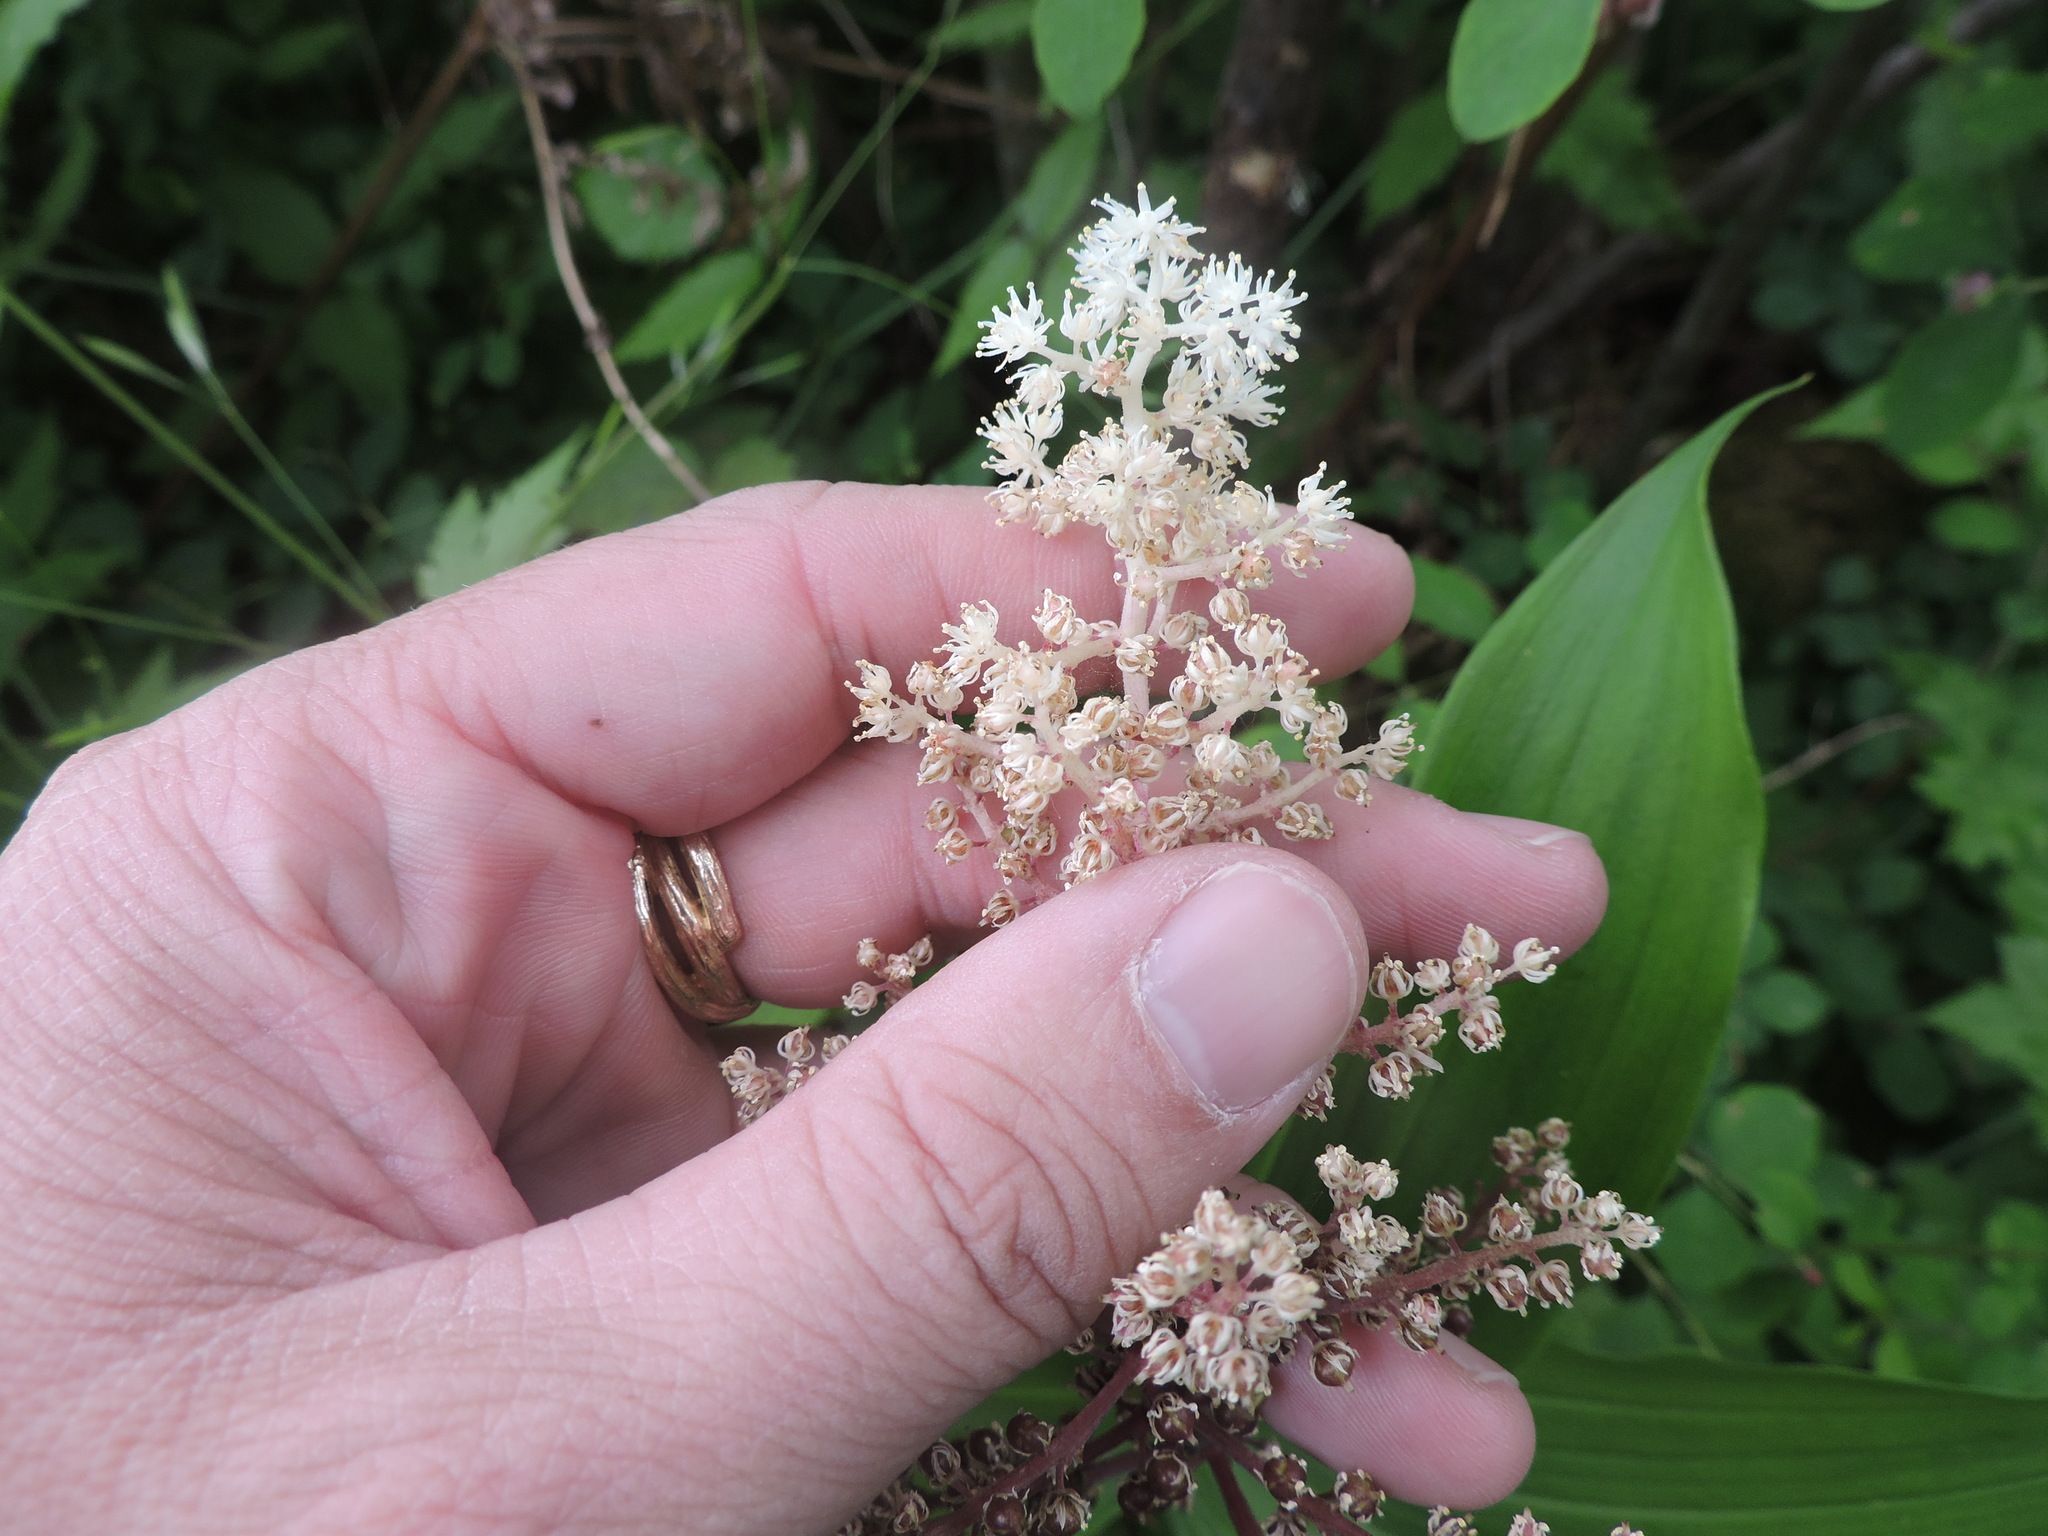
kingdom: Plantae
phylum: Tracheophyta
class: Liliopsida
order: Asparagales
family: Asparagaceae
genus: Maianthemum
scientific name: Maianthemum racemosum
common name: False spikenard
